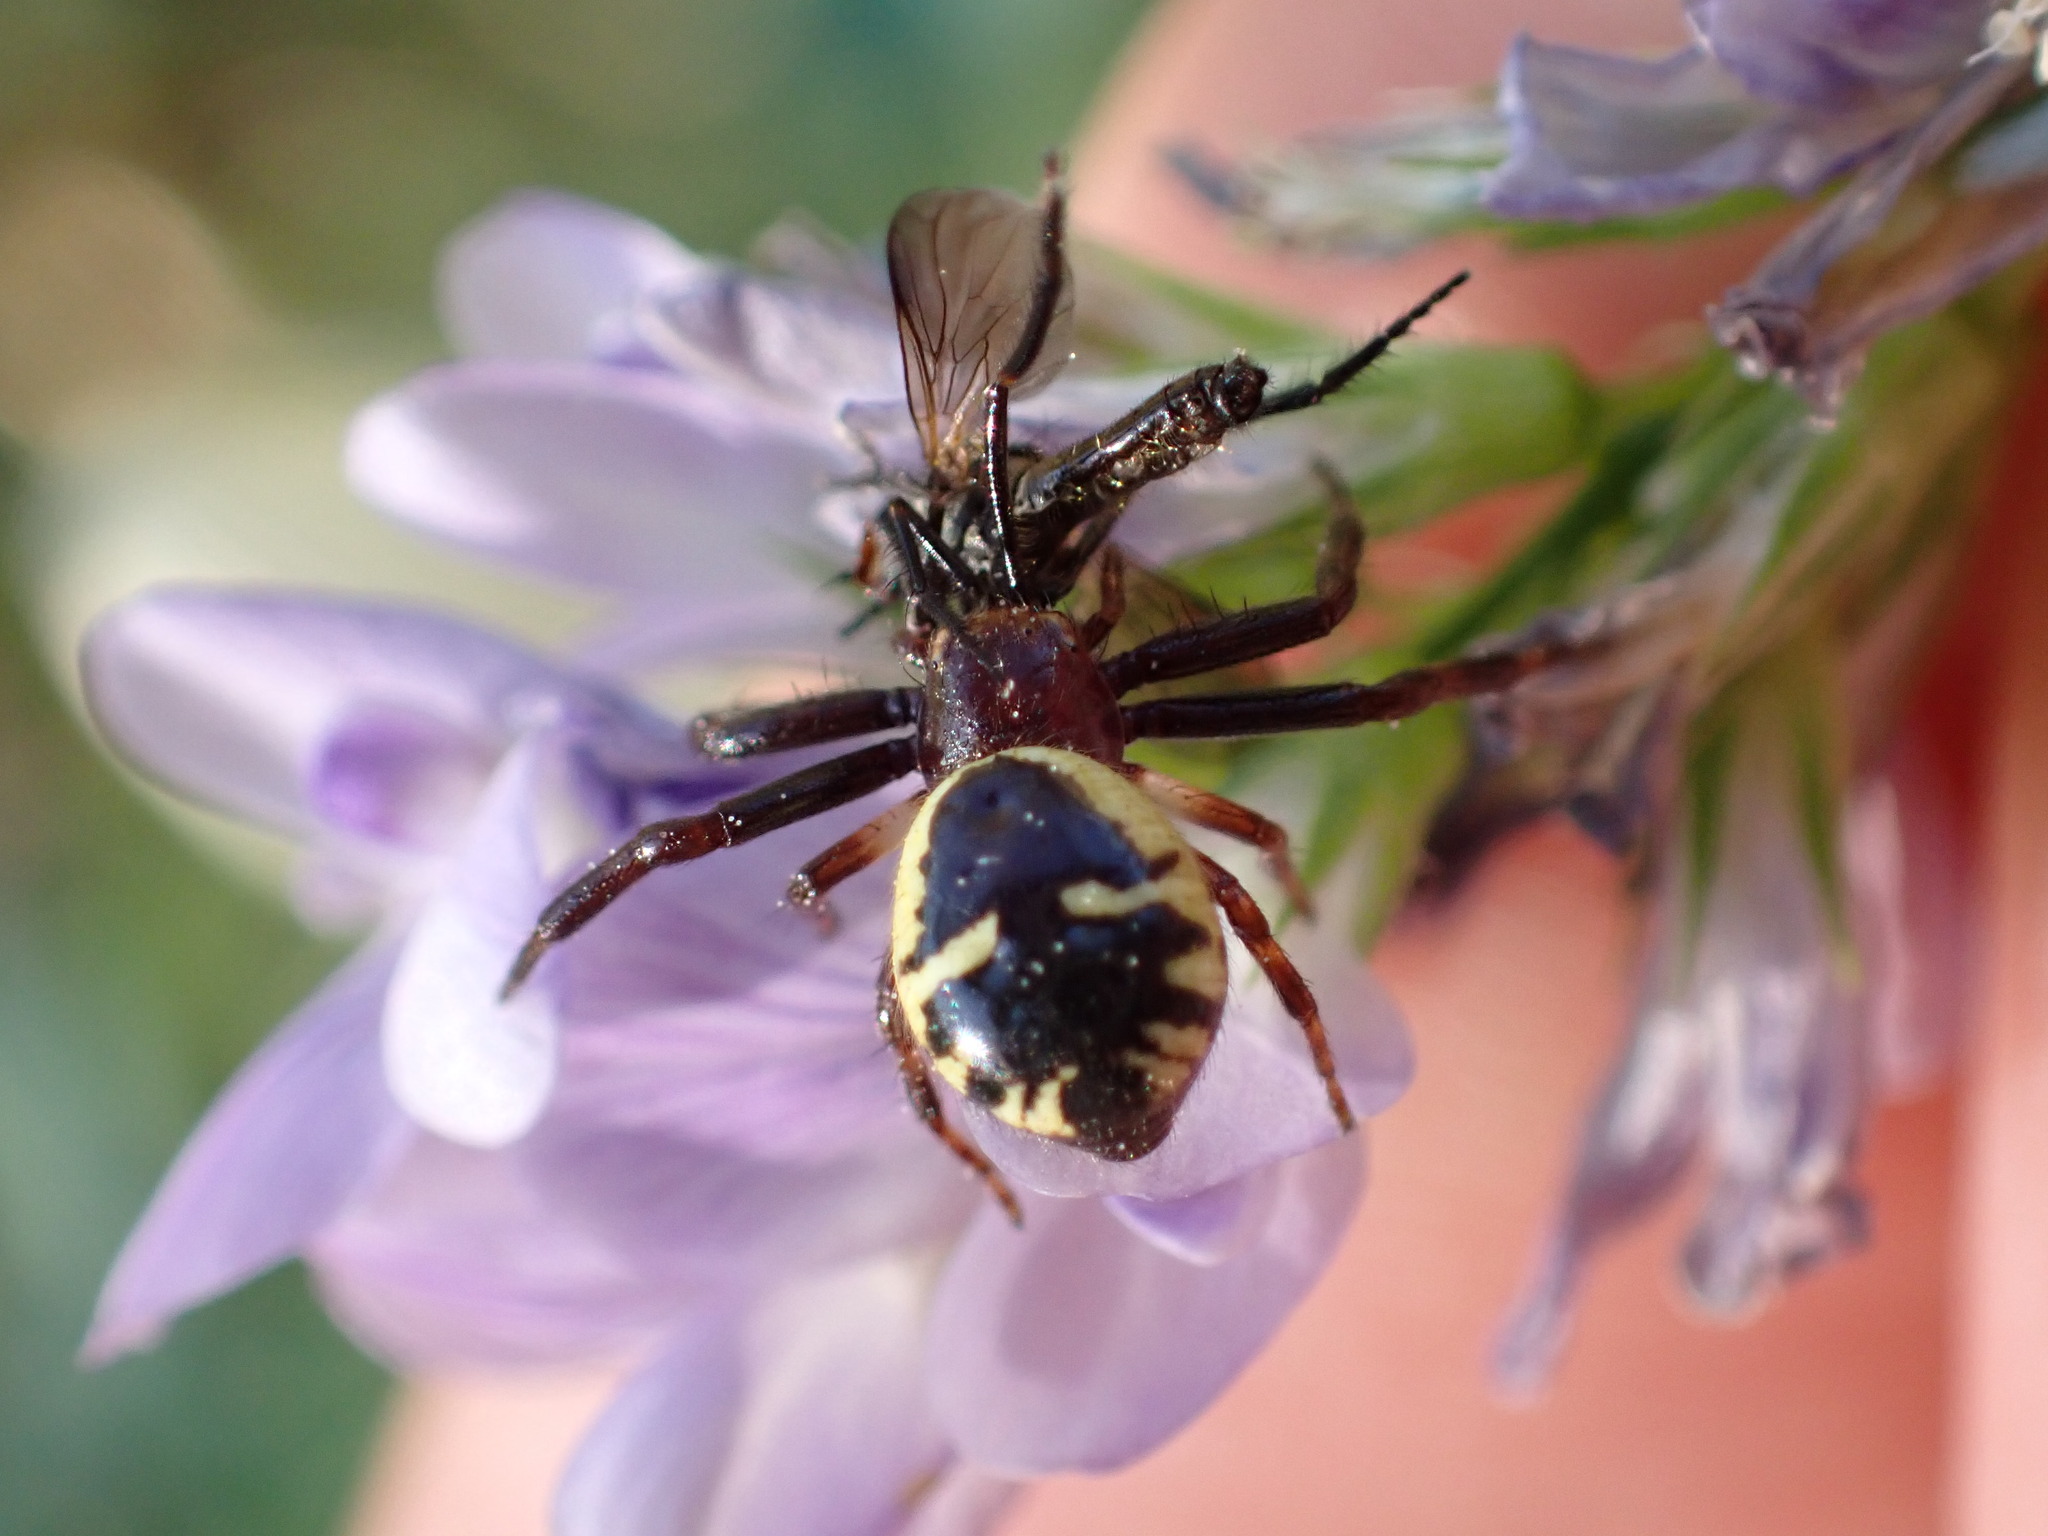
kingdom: Animalia
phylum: Arthropoda
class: Arachnida
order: Araneae
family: Thomisidae
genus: Synema
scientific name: Synema globosum
